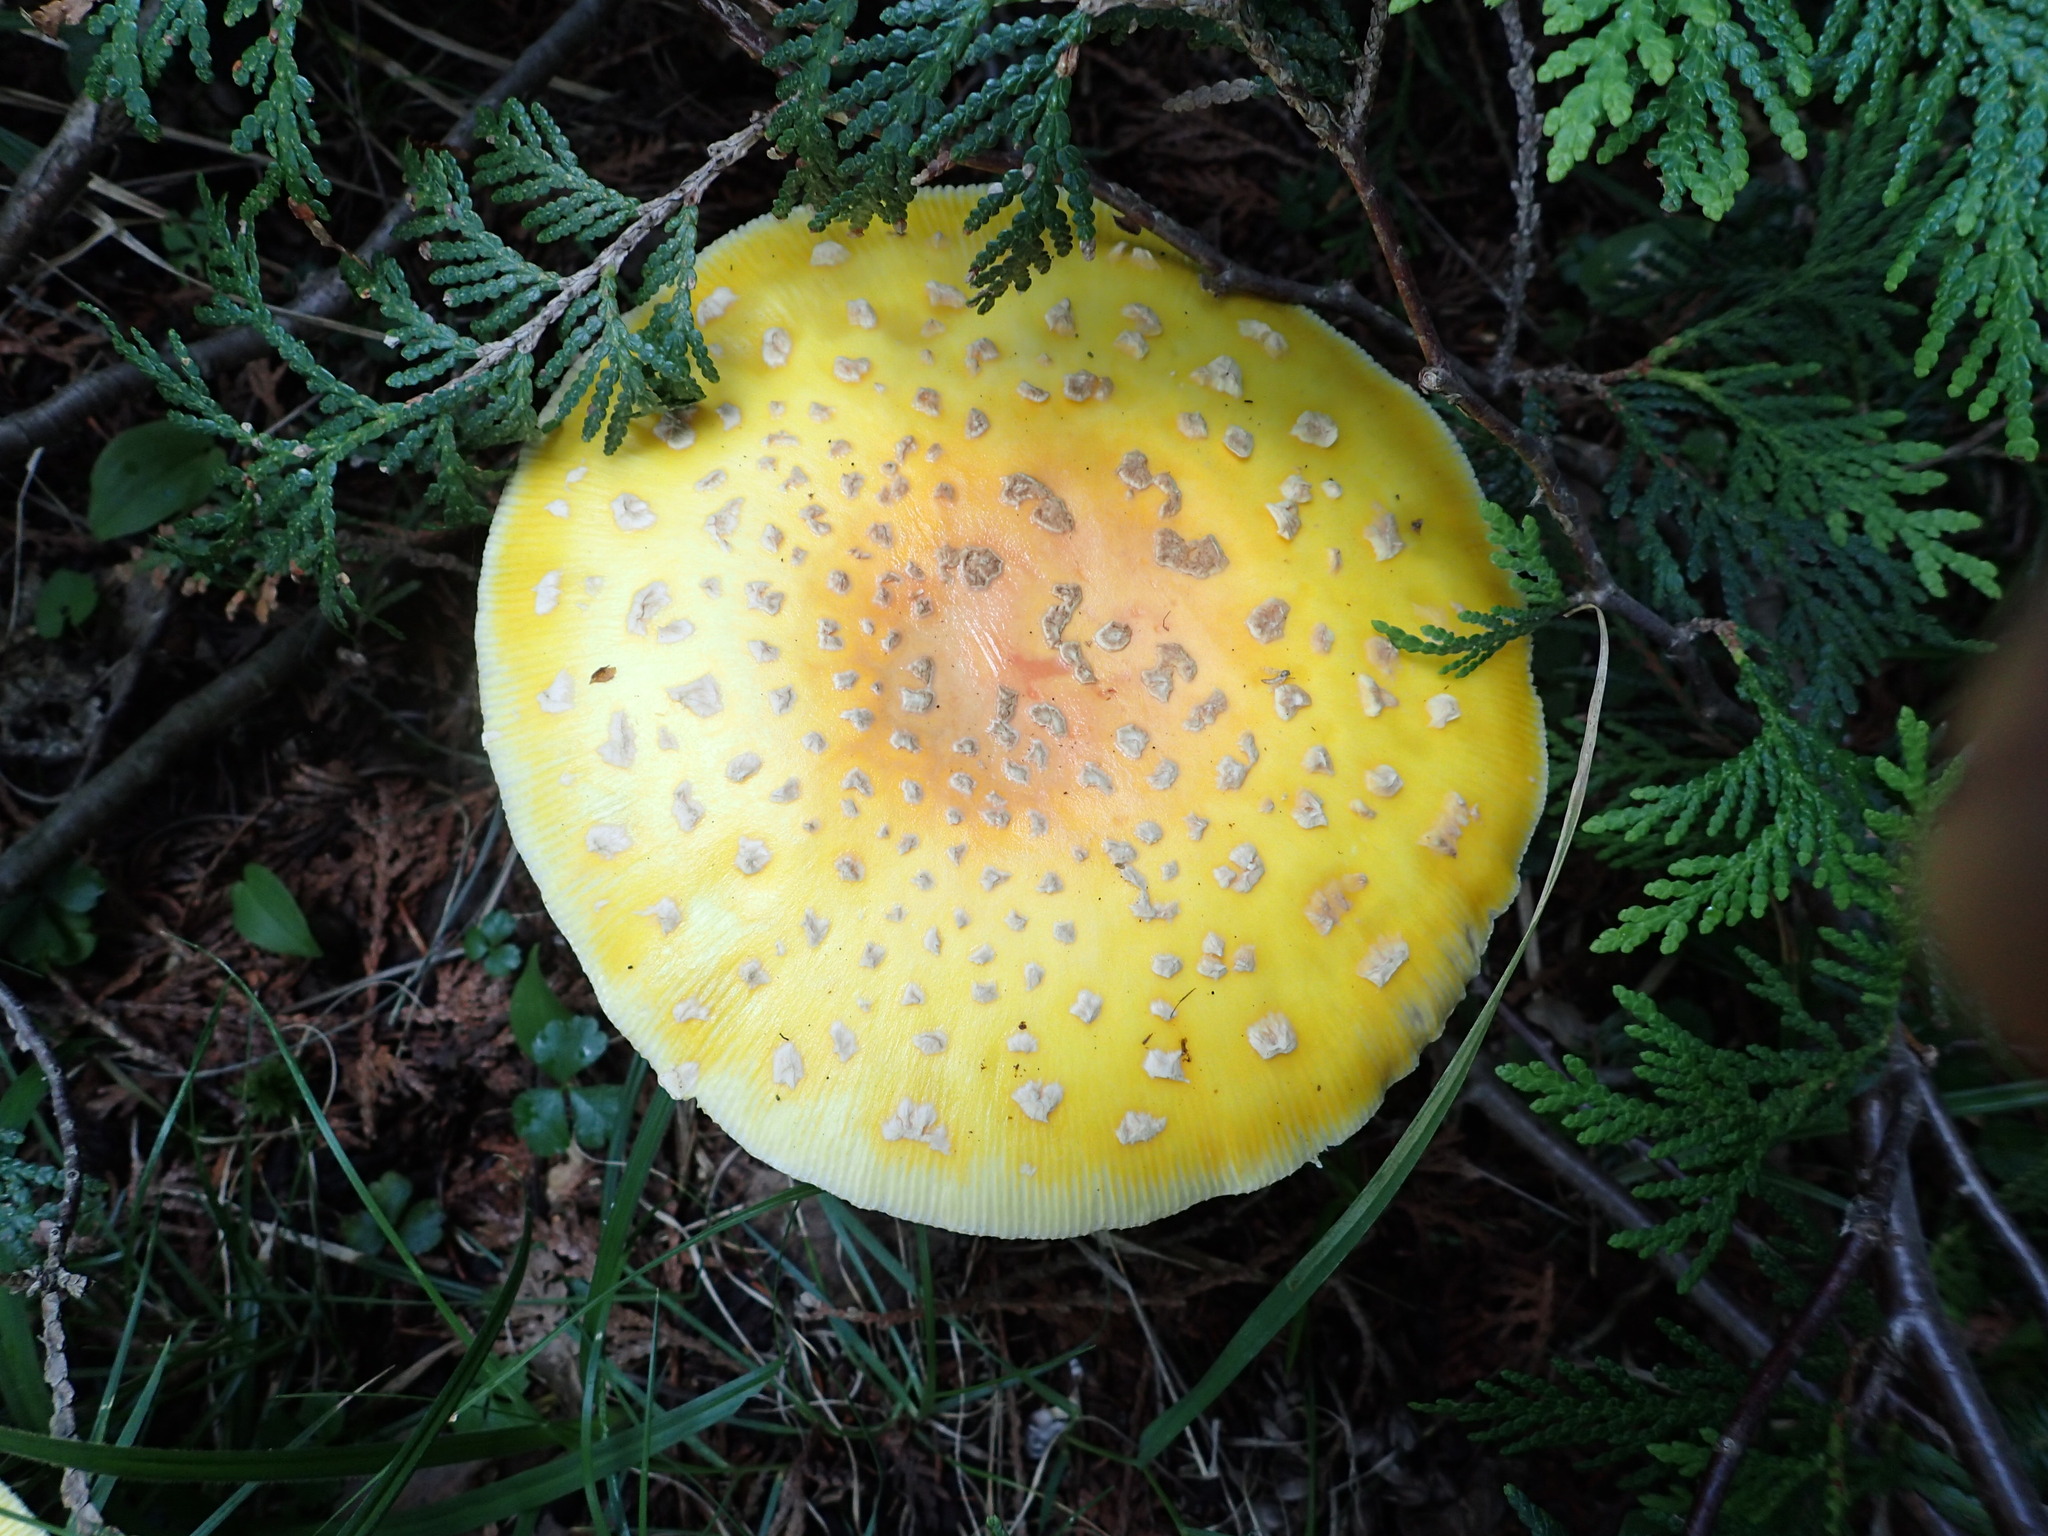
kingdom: Fungi
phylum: Basidiomycota
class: Agaricomycetes
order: Agaricales
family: Amanitaceae
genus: Amanita
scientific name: Amanita muscaria
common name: Fly agaric
